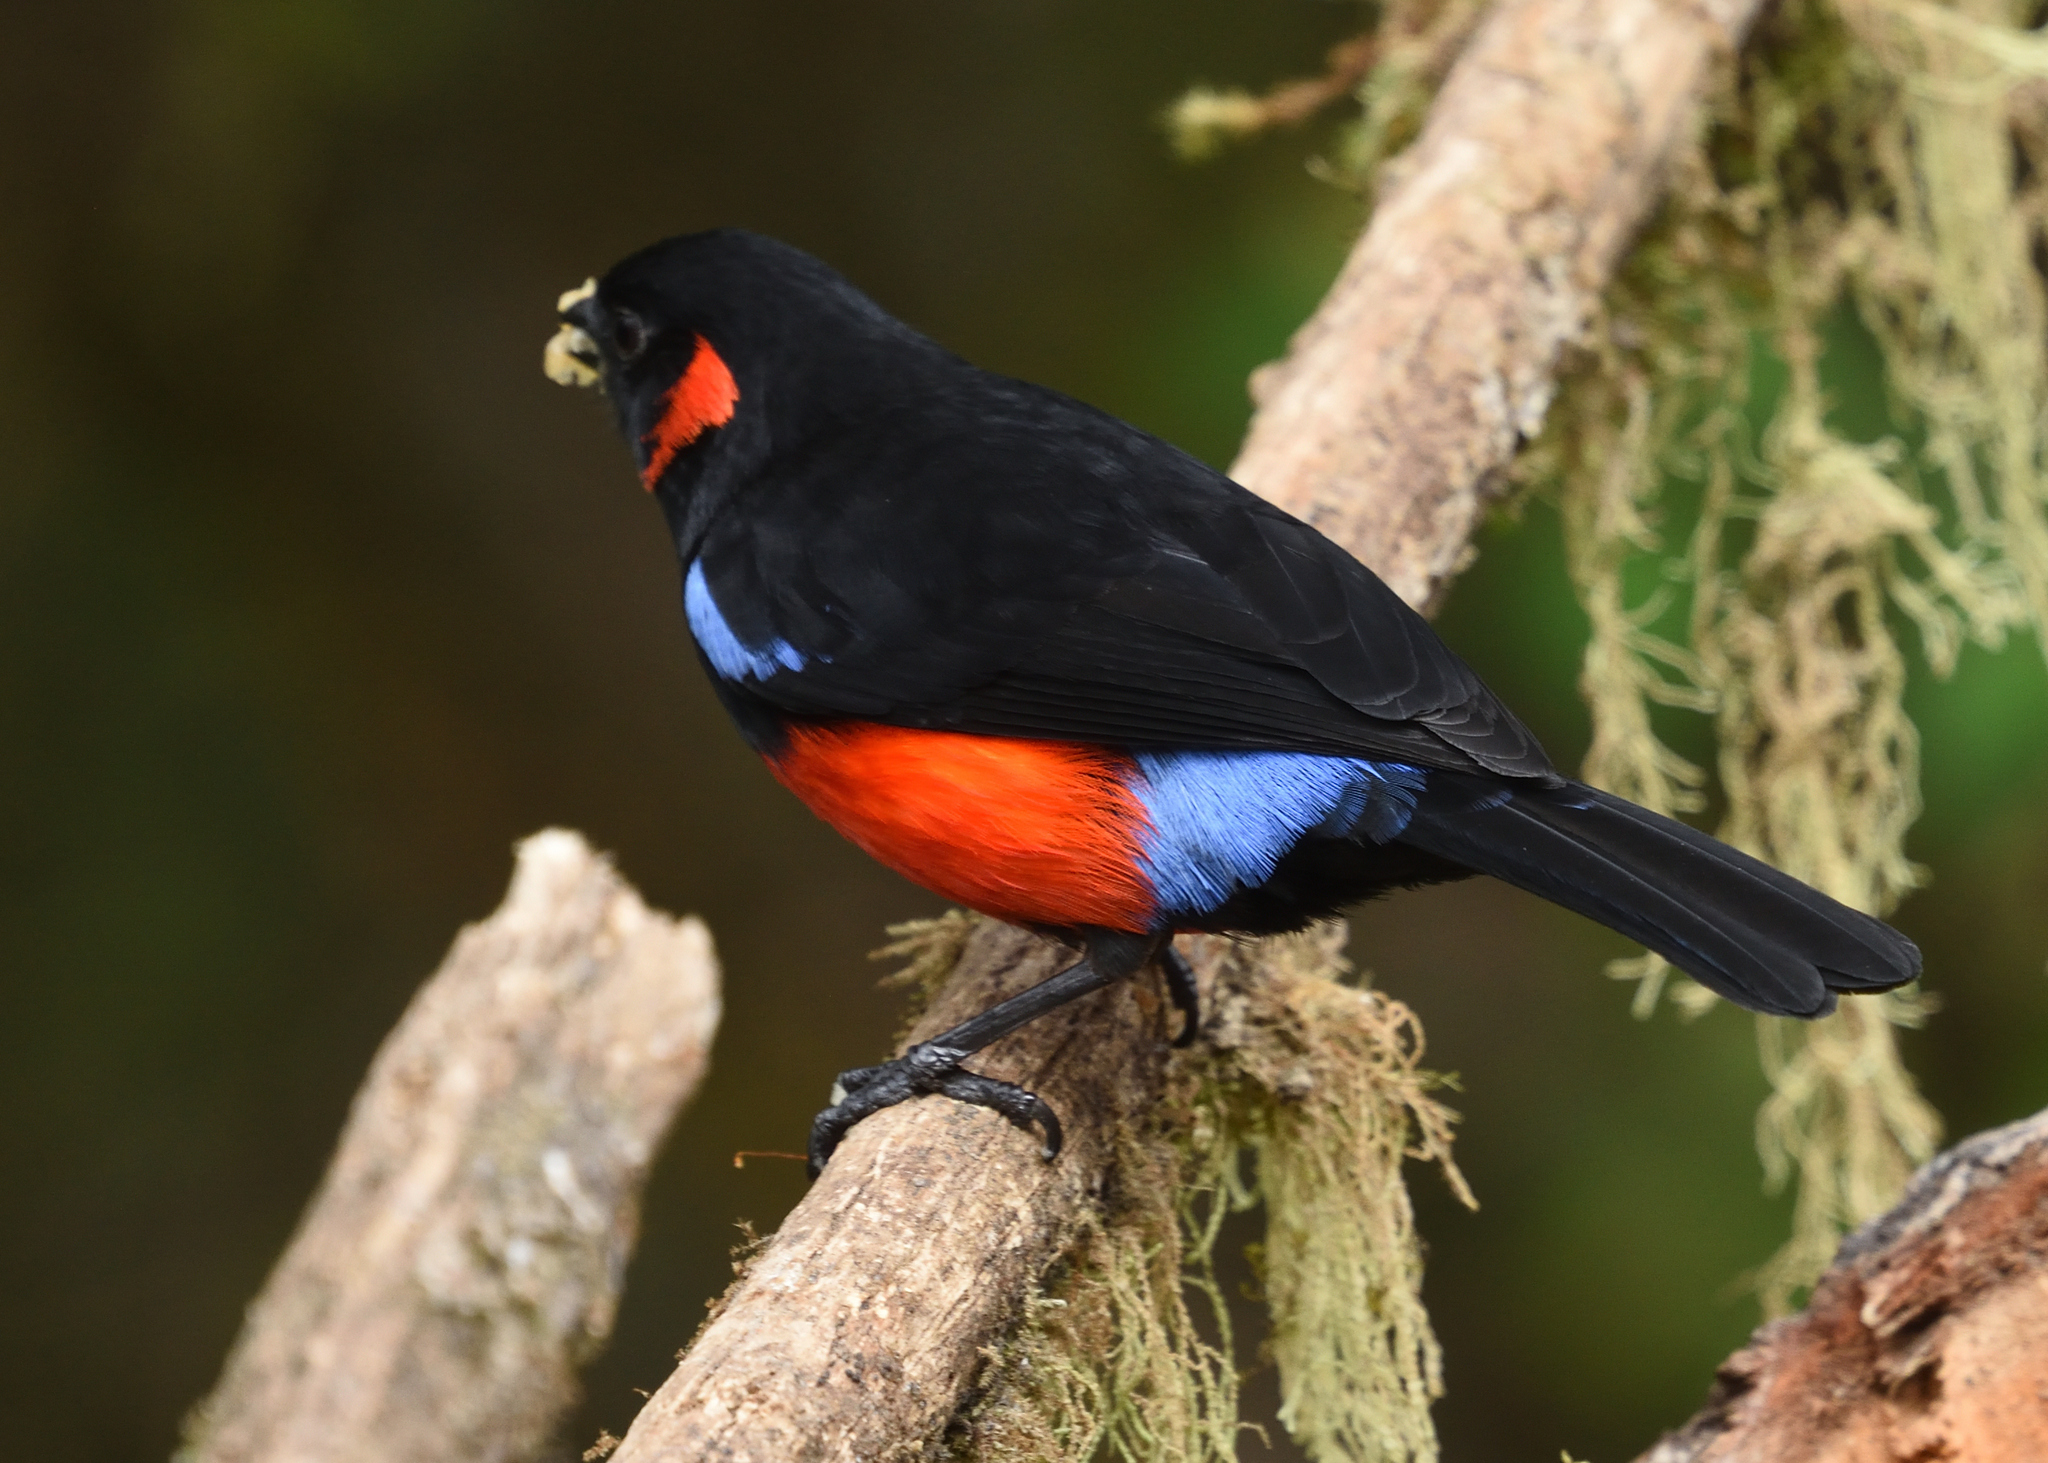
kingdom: Animalia
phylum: Chordata
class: Aves
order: Passeriformes
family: Thraupidae
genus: Anisognathus
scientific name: Anisognathus igniventris
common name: Scarlet-bellied mountain tanager
